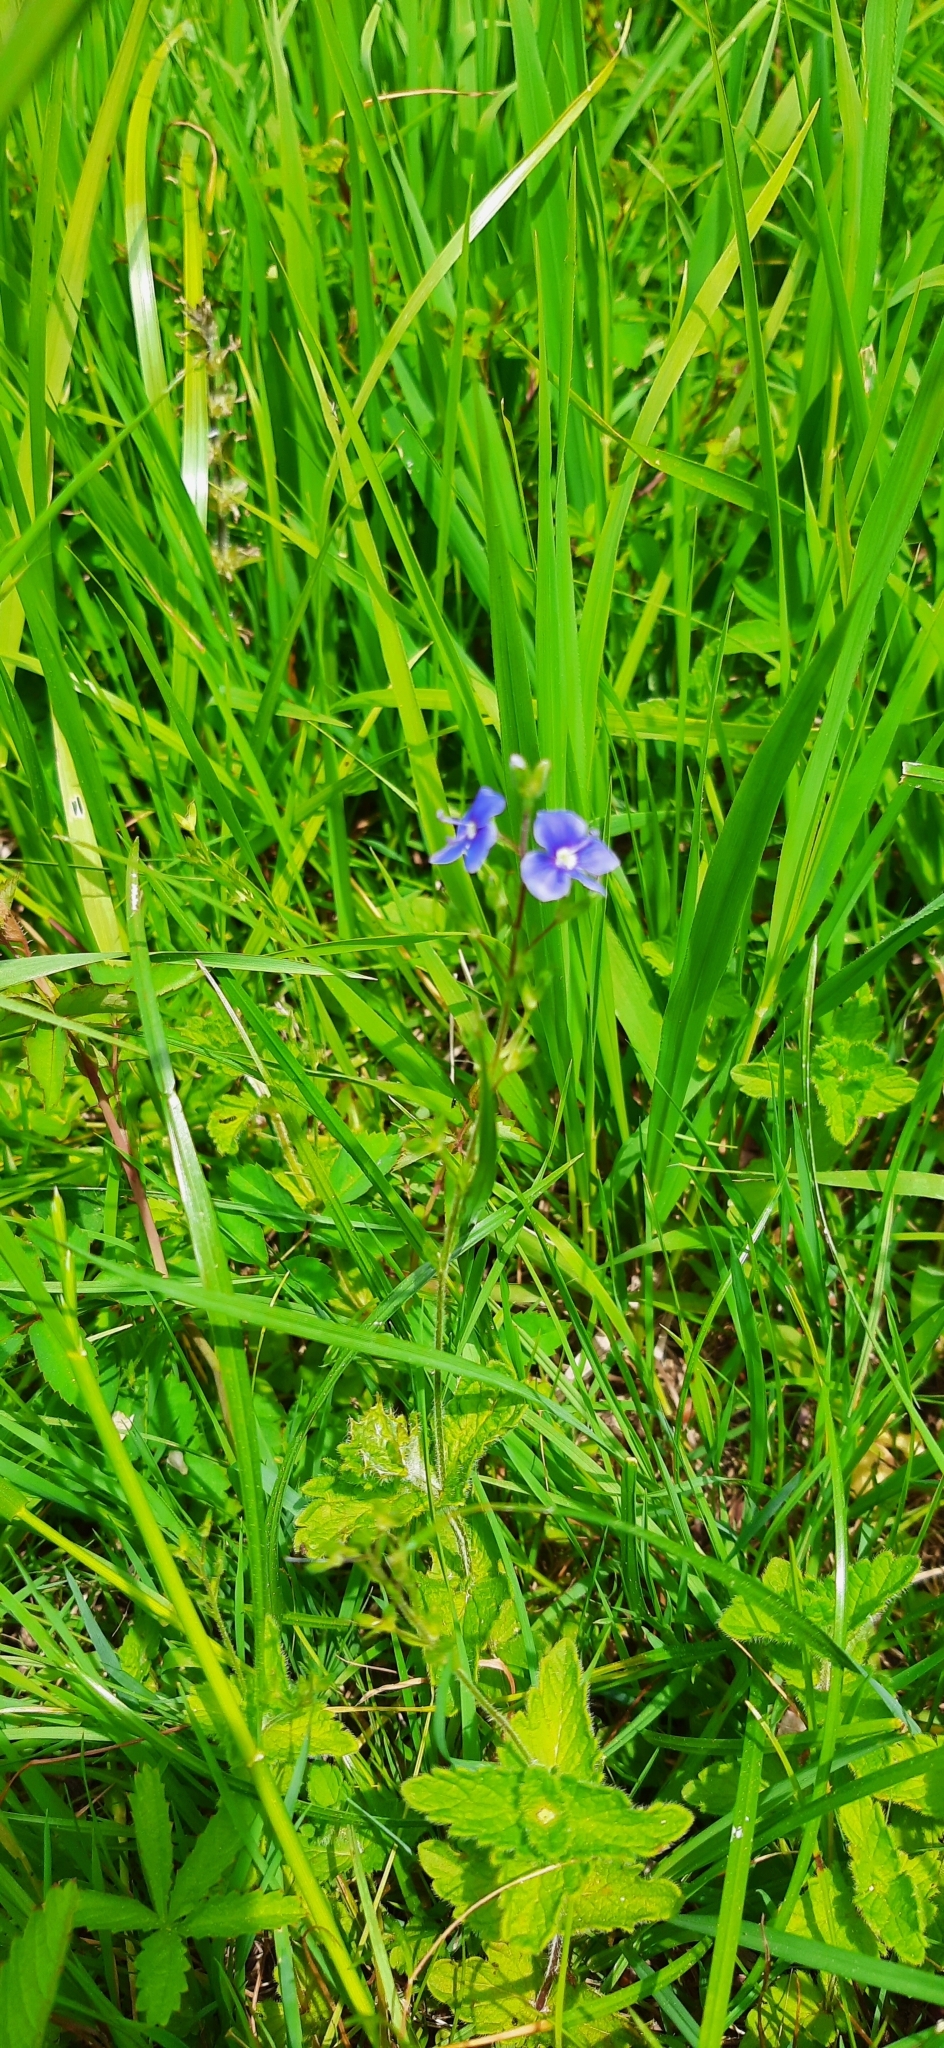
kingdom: Plantae
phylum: Tracheophyta
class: Magnoliopsida
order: Lamiales
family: Plantaginaceae
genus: Veronica
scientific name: Veronica chamaedrys
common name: Germander speedwell
